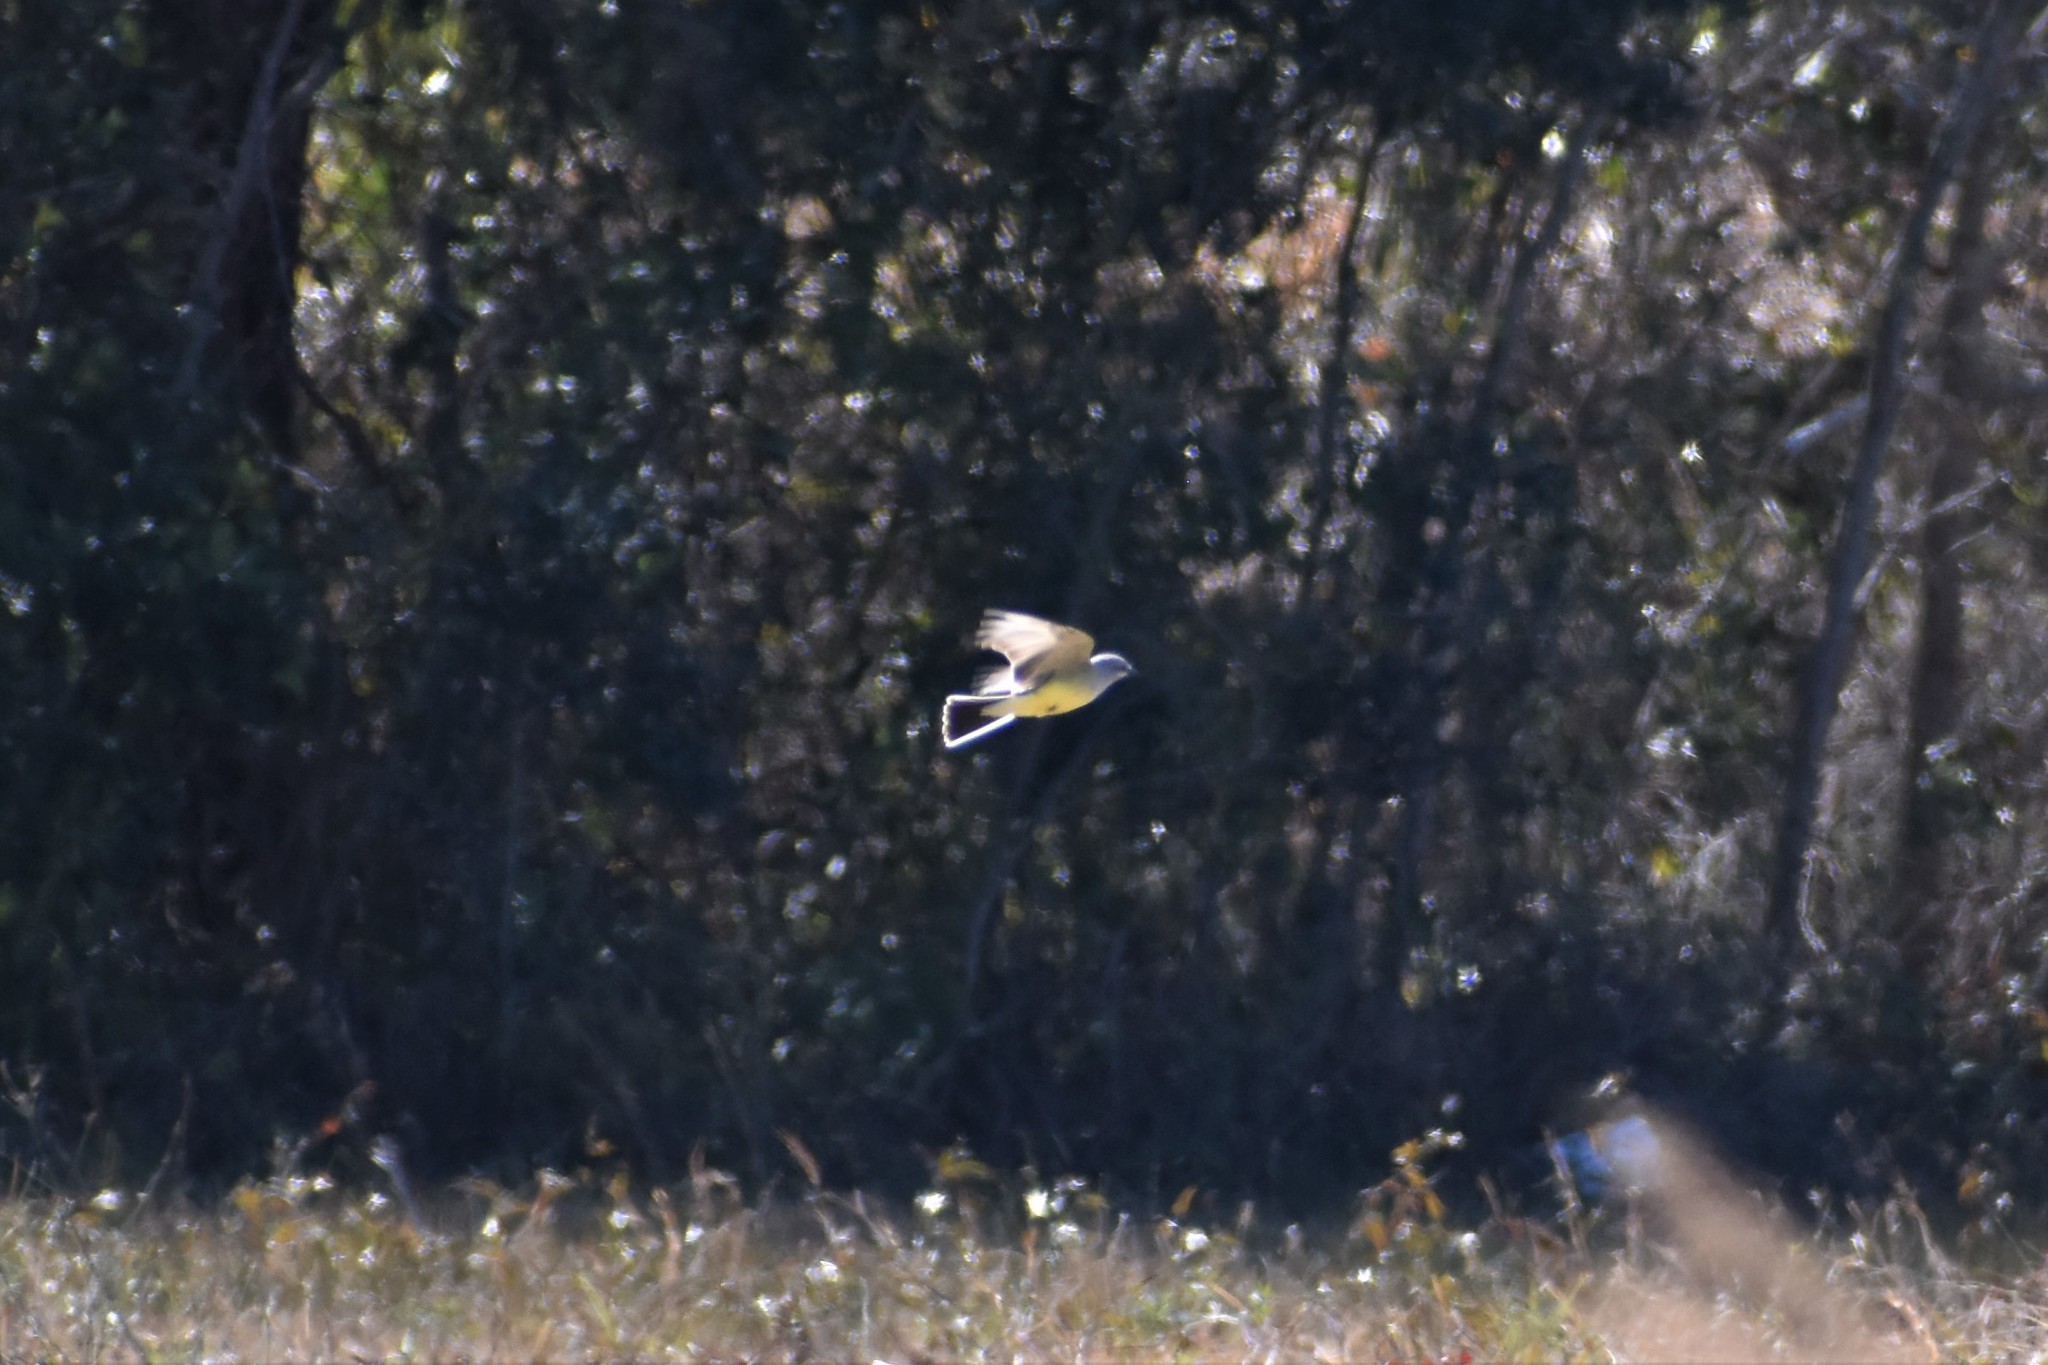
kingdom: Animalia
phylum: Chordata
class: Aves
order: Passeriformes
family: Tyrannidae
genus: Tyrannus
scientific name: Tyrannus verticalis
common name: Western kingbird
